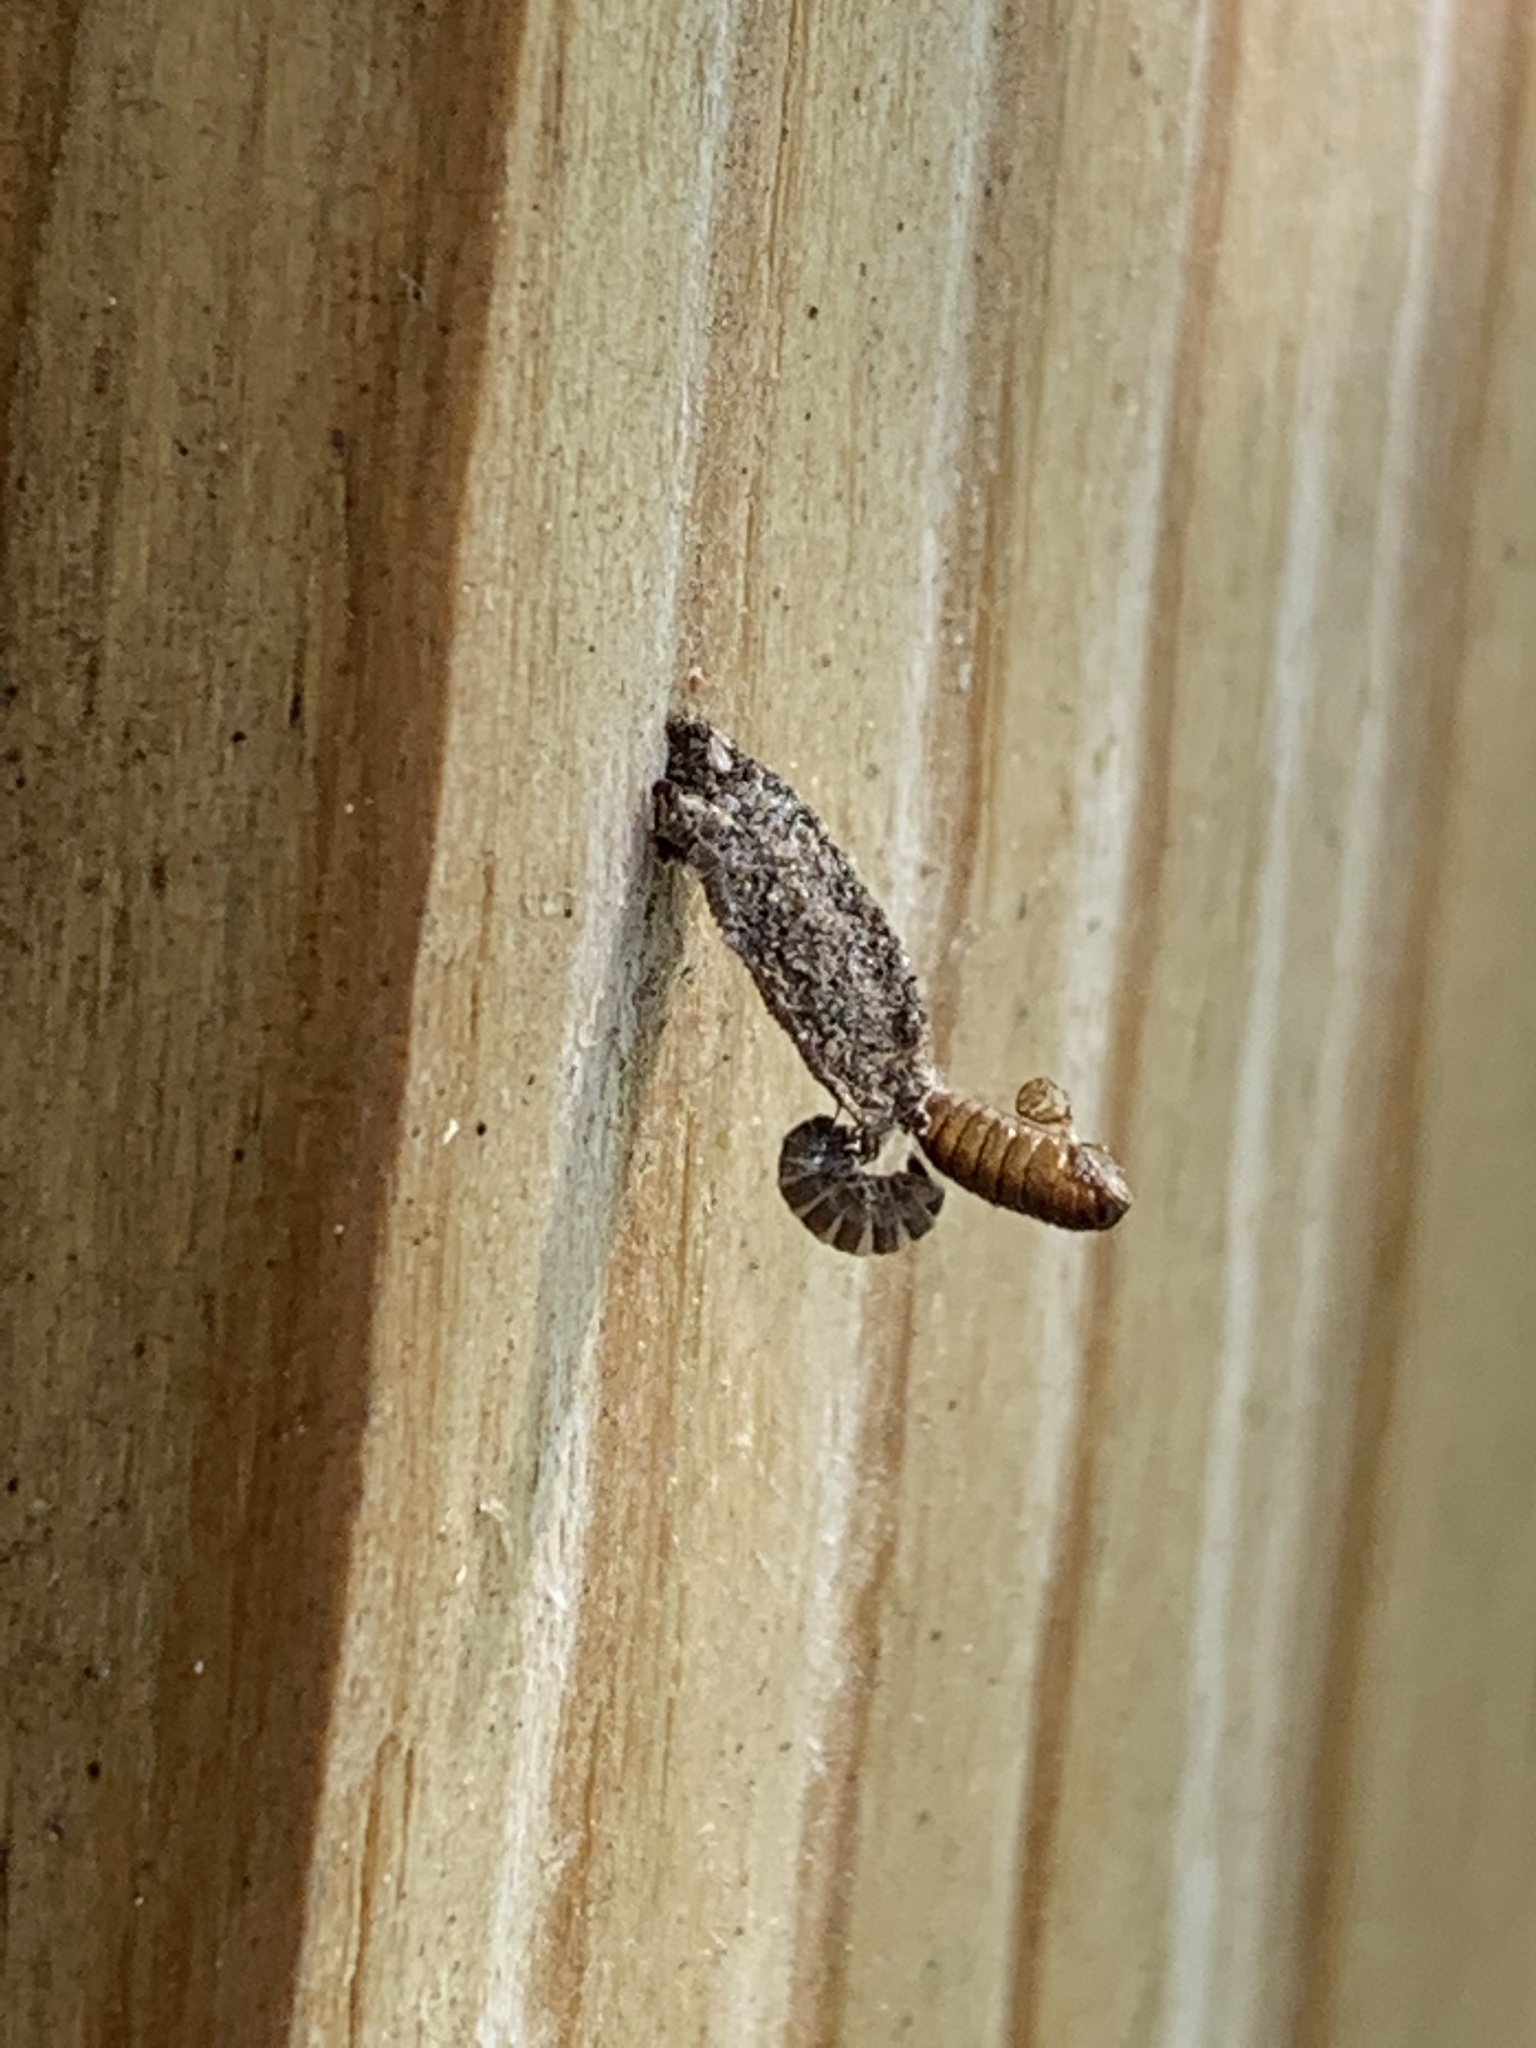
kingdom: Animalia
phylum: Arthropoda
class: Insecta
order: Lepidoptera
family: Psychidae
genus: Dahlica
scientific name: Dahlica triquetrella
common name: Narrow lichen case-bearer
